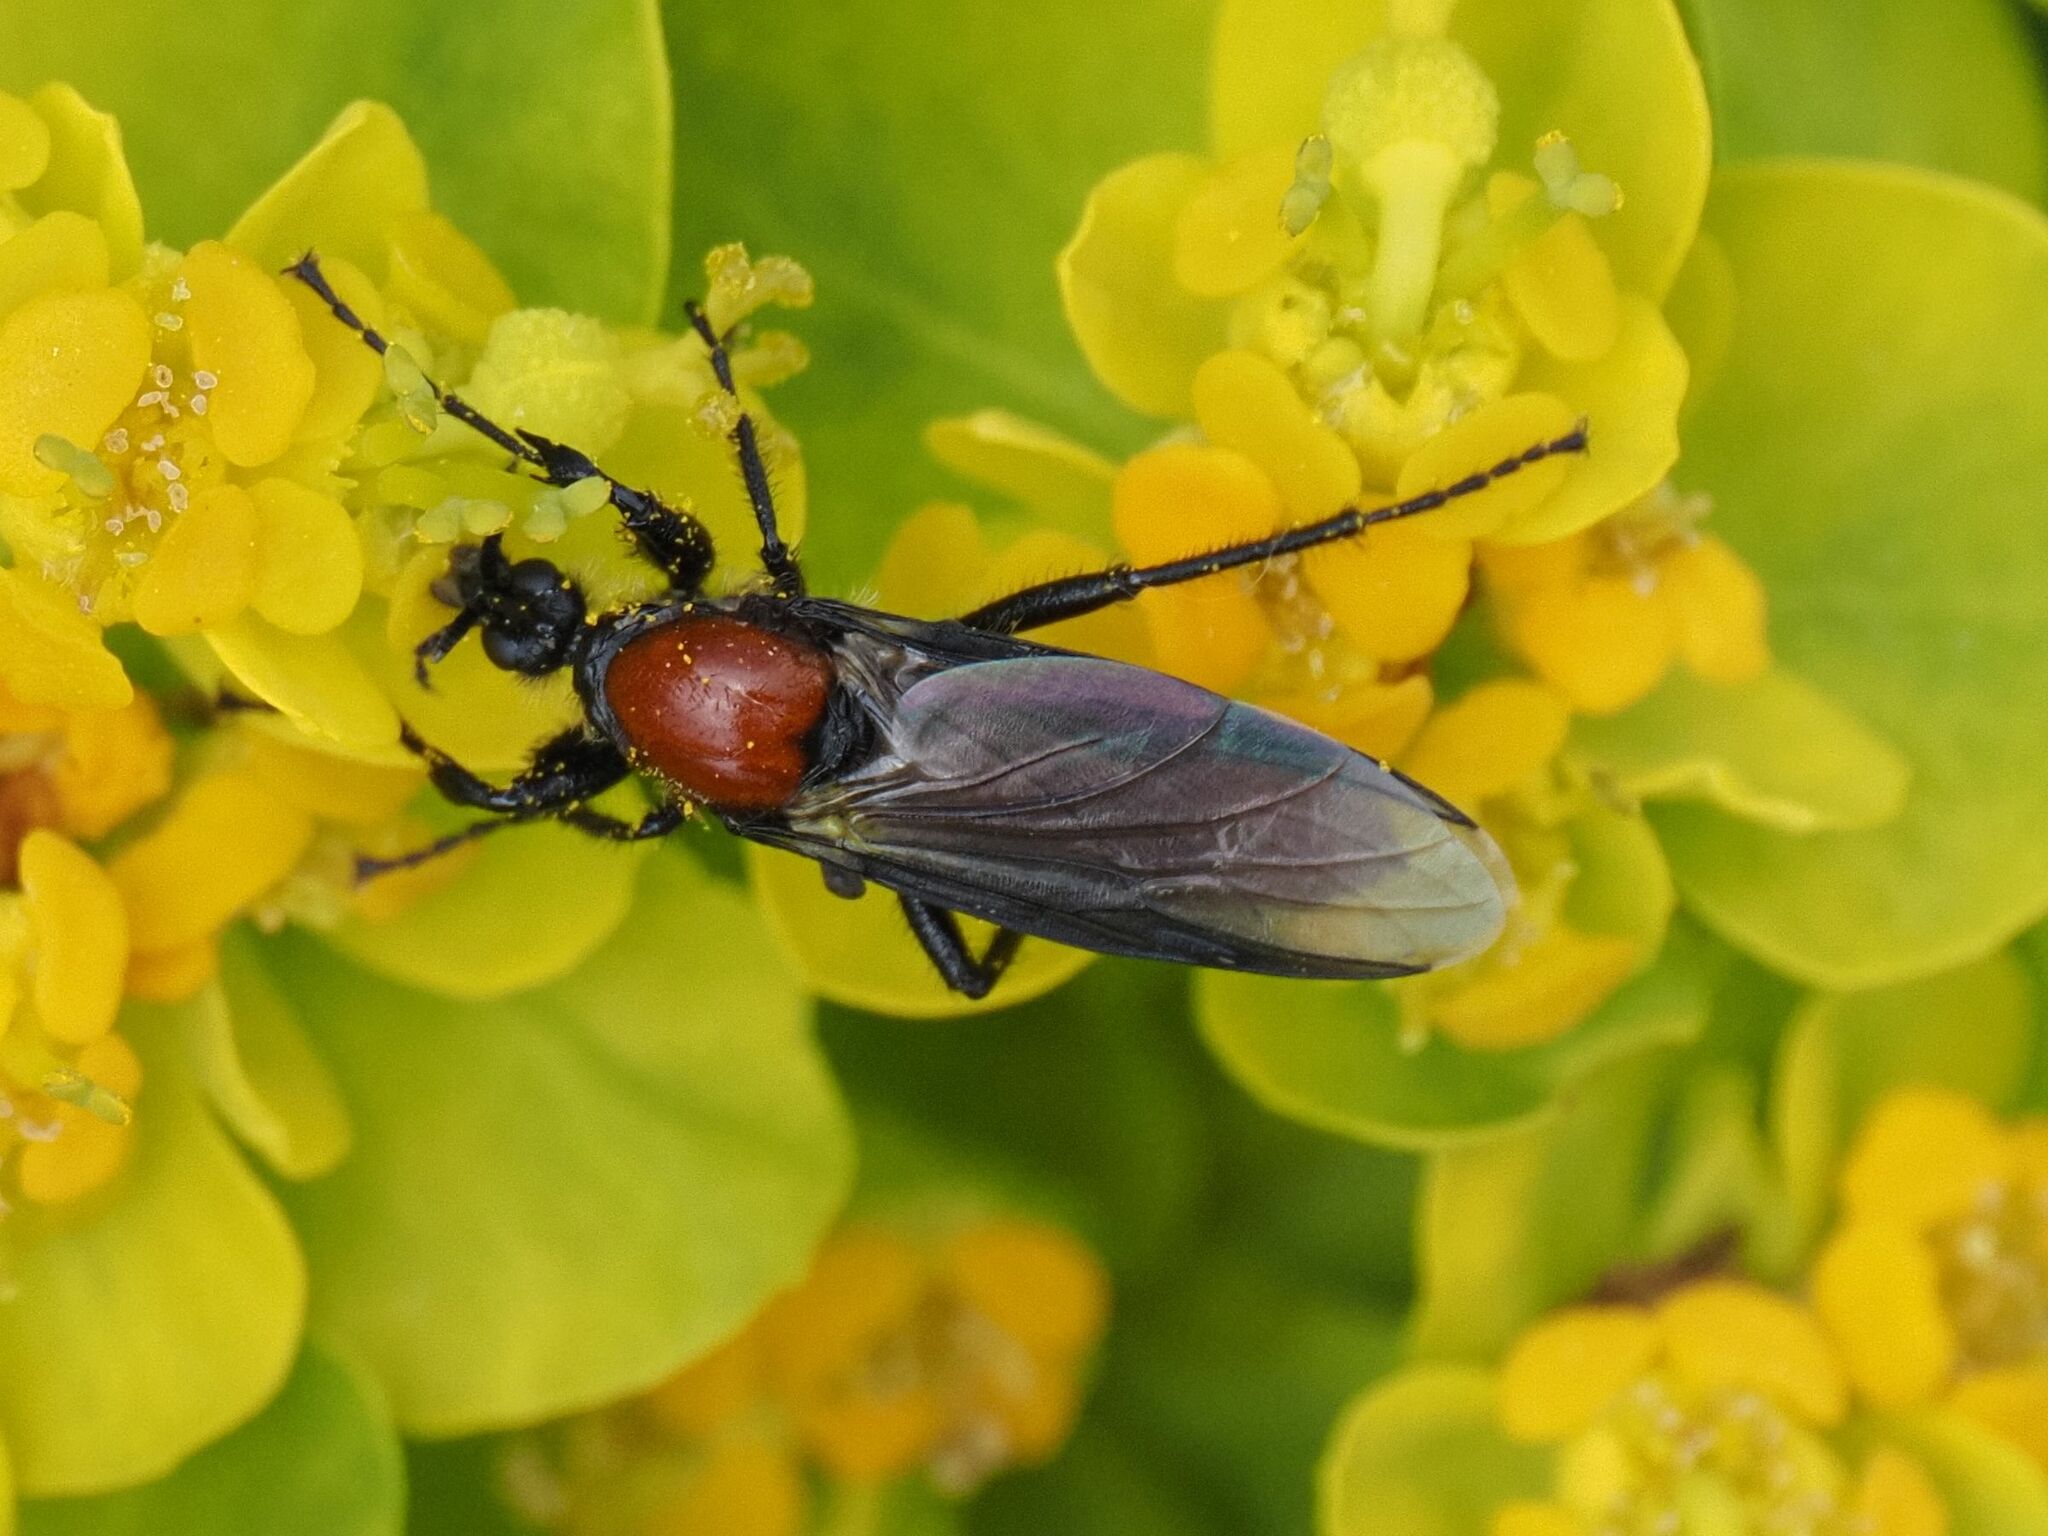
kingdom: Animalia
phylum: Arthropoda
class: Insecta
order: Diptera
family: Bibionidae
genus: Bibio
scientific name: Bibio hortulanus
